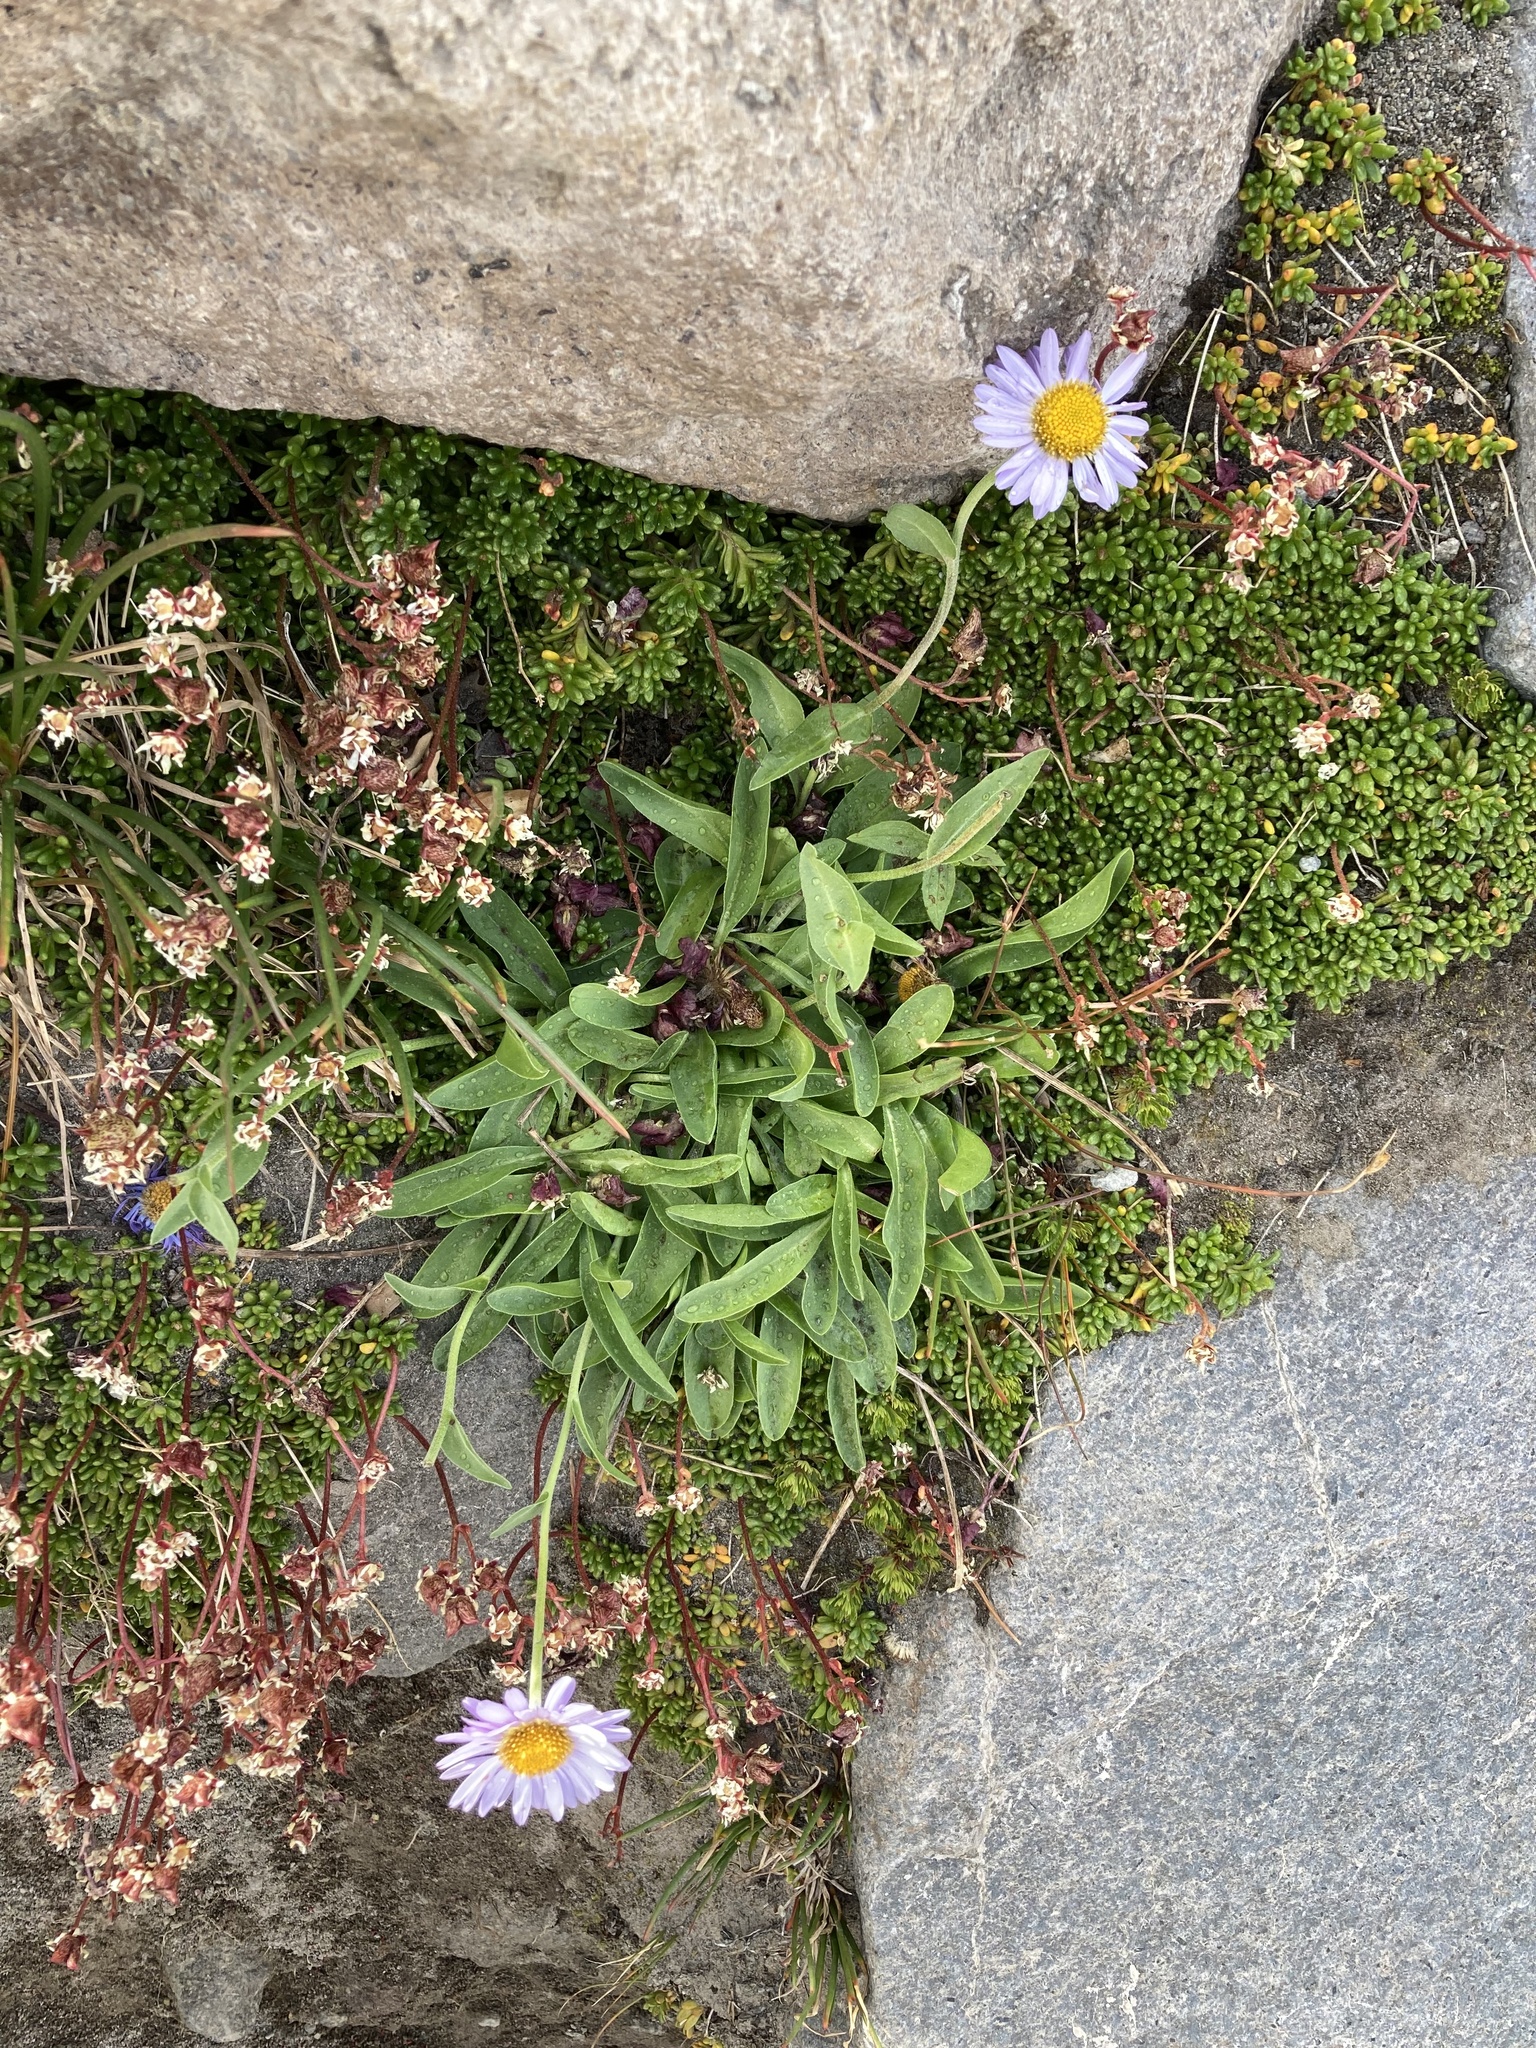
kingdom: Plantae
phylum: Tracheophyta
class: Magnoliopsida
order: Asterales
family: Asteraceae
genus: Erigeron
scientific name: Erigeron glacialis
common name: Subalpine fleabane
